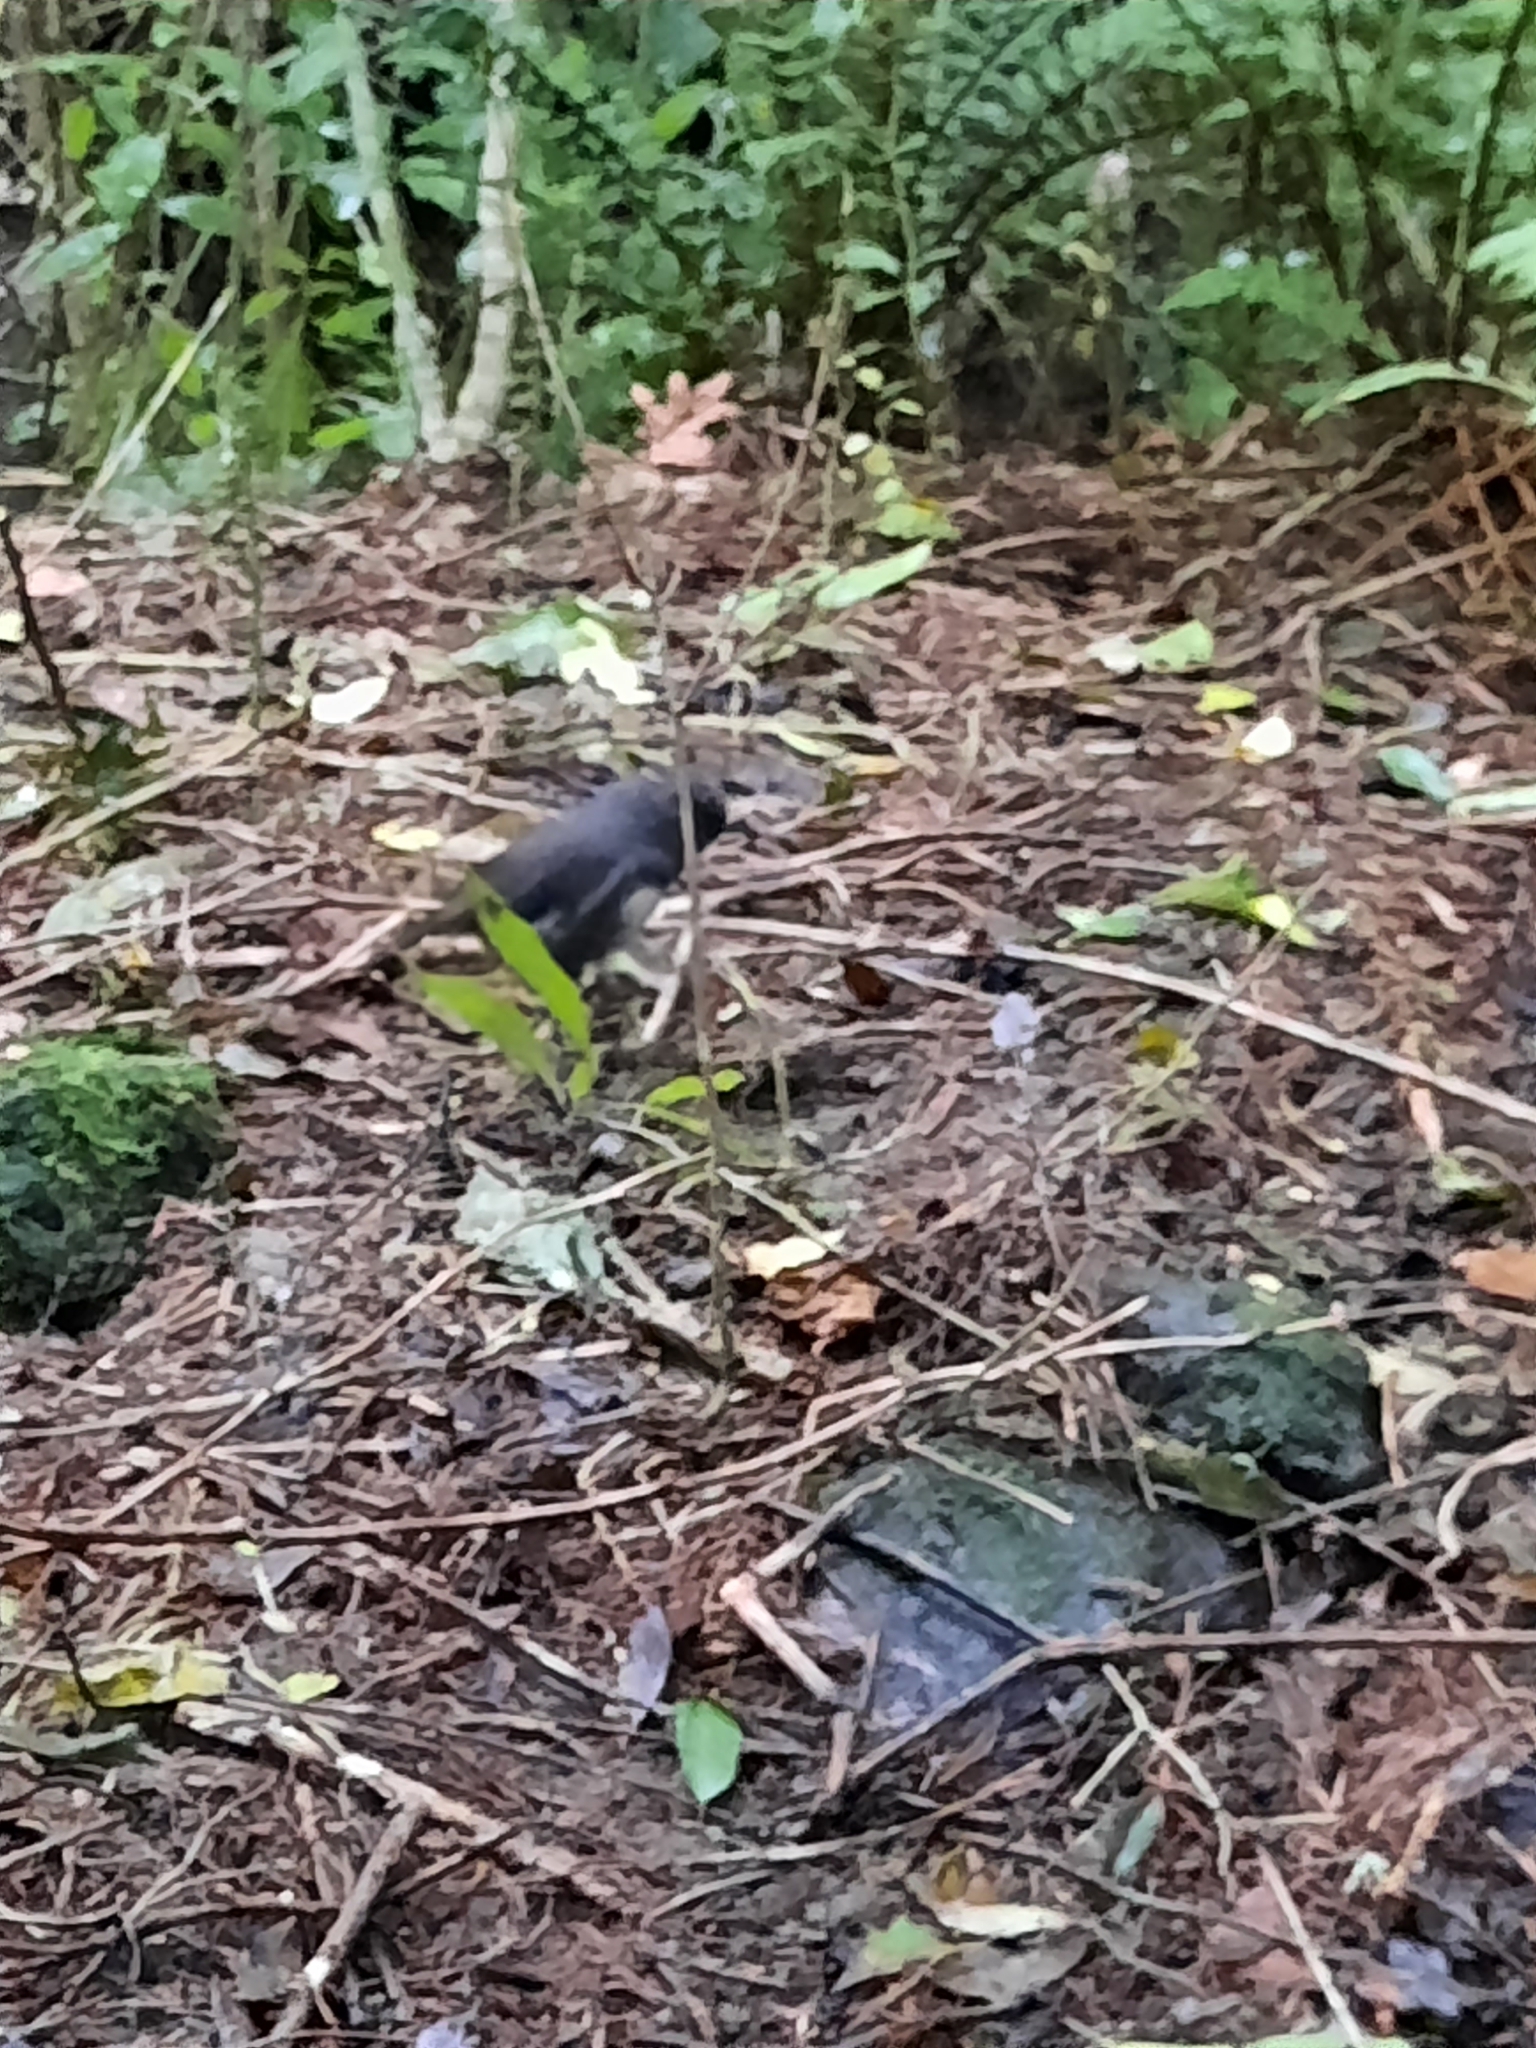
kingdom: Animalia
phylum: Chordata
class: Aves
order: Passeriformes
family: Petroicidae
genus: Petroica
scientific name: Petroica australis
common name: New zealand robin
